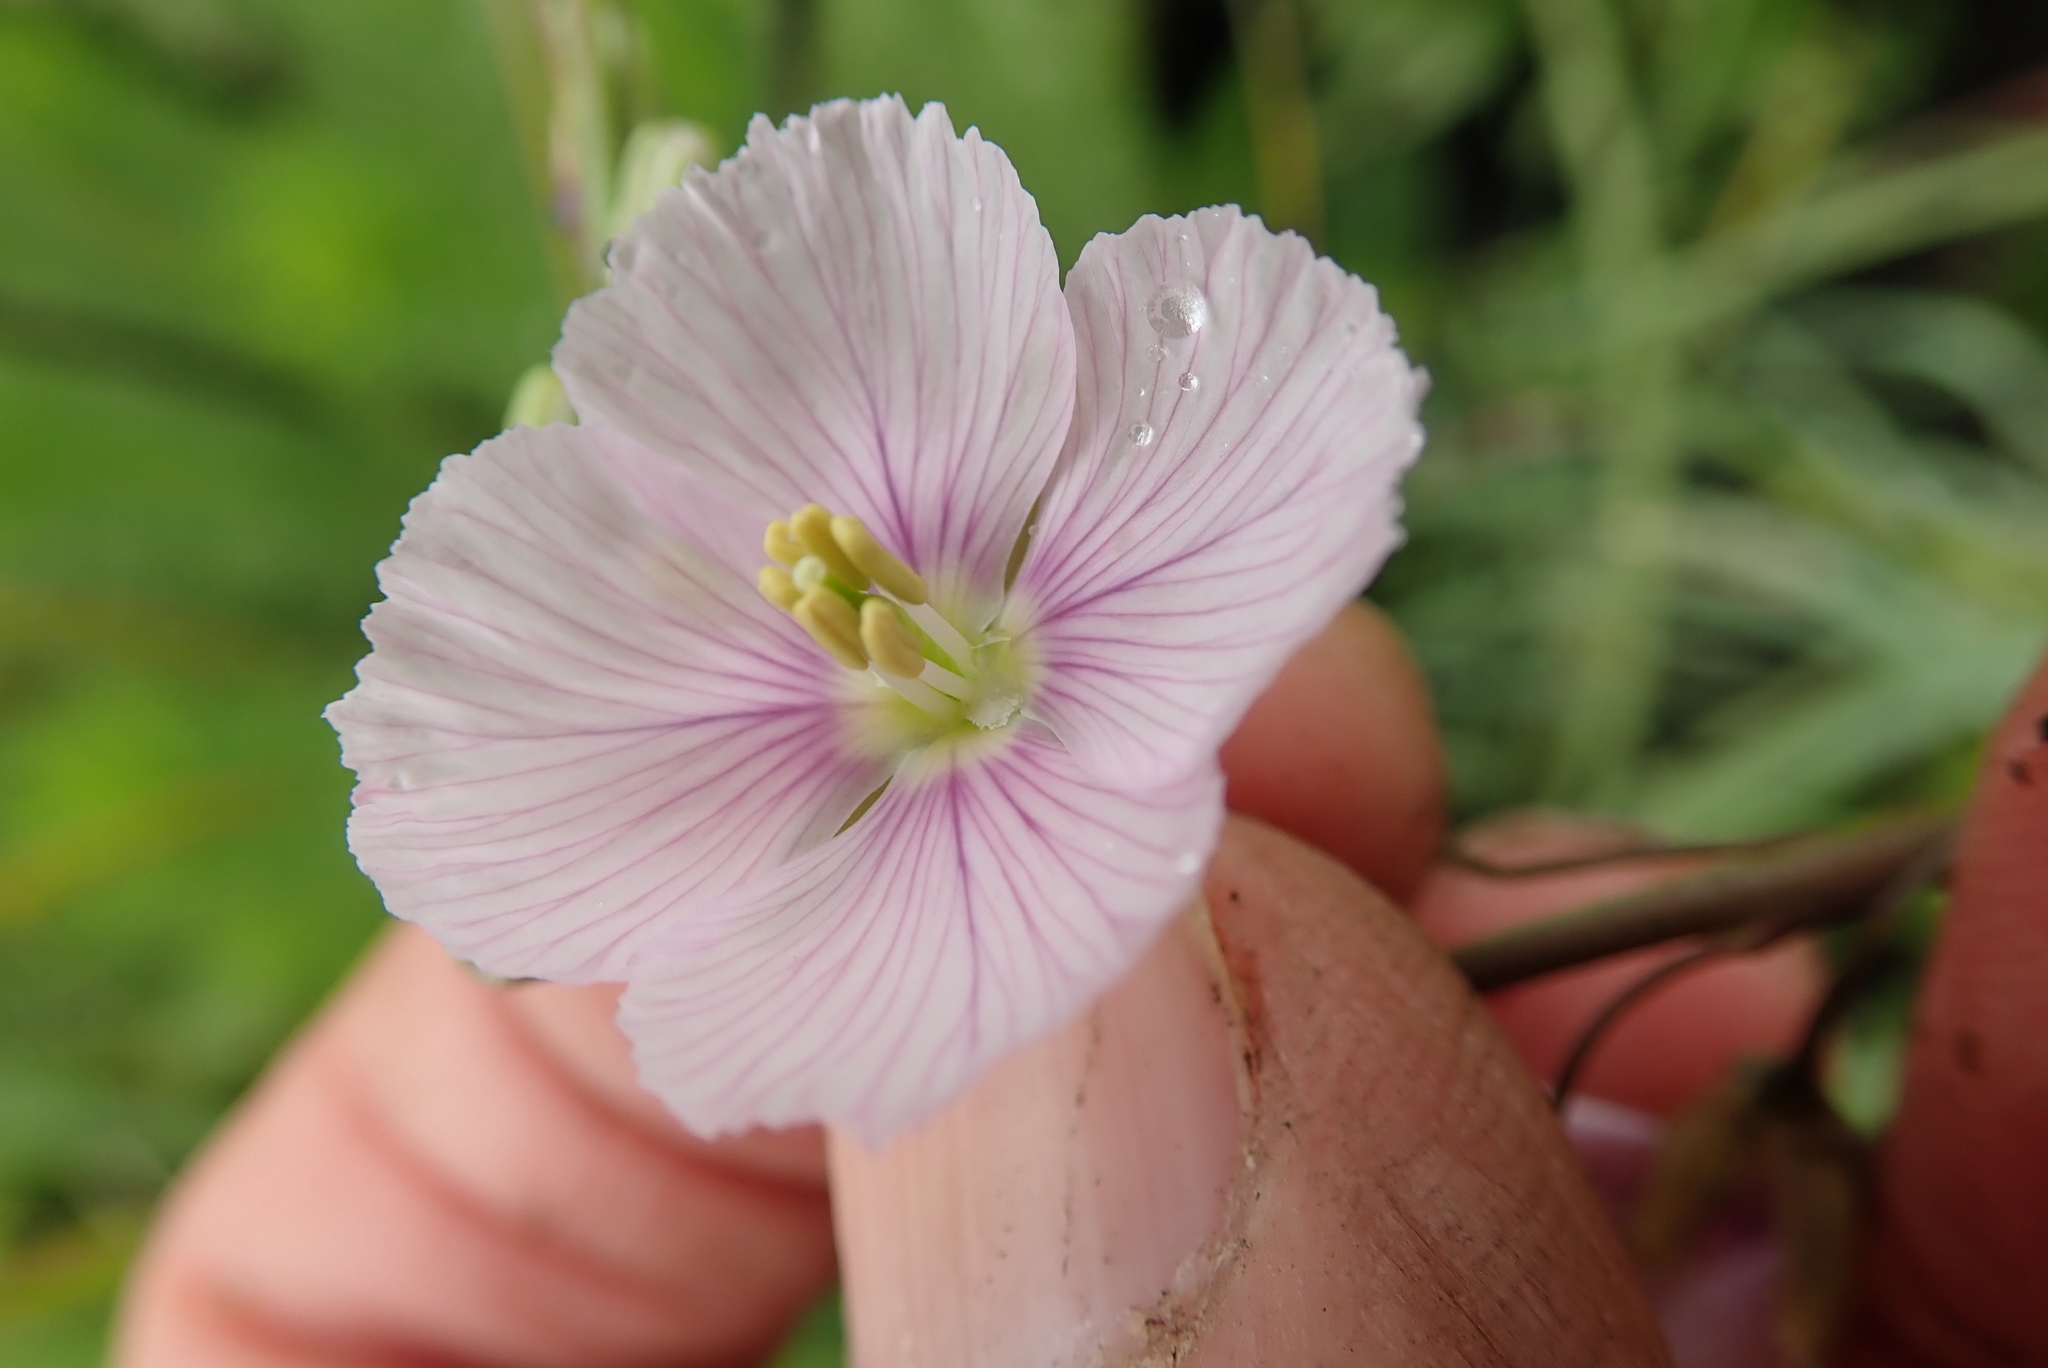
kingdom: Plantae
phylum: Tracheophyta
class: Magnoliopsida
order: Brassicales
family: Brassicaceae
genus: Heliophila
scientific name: Heliophila rigidiuscula
